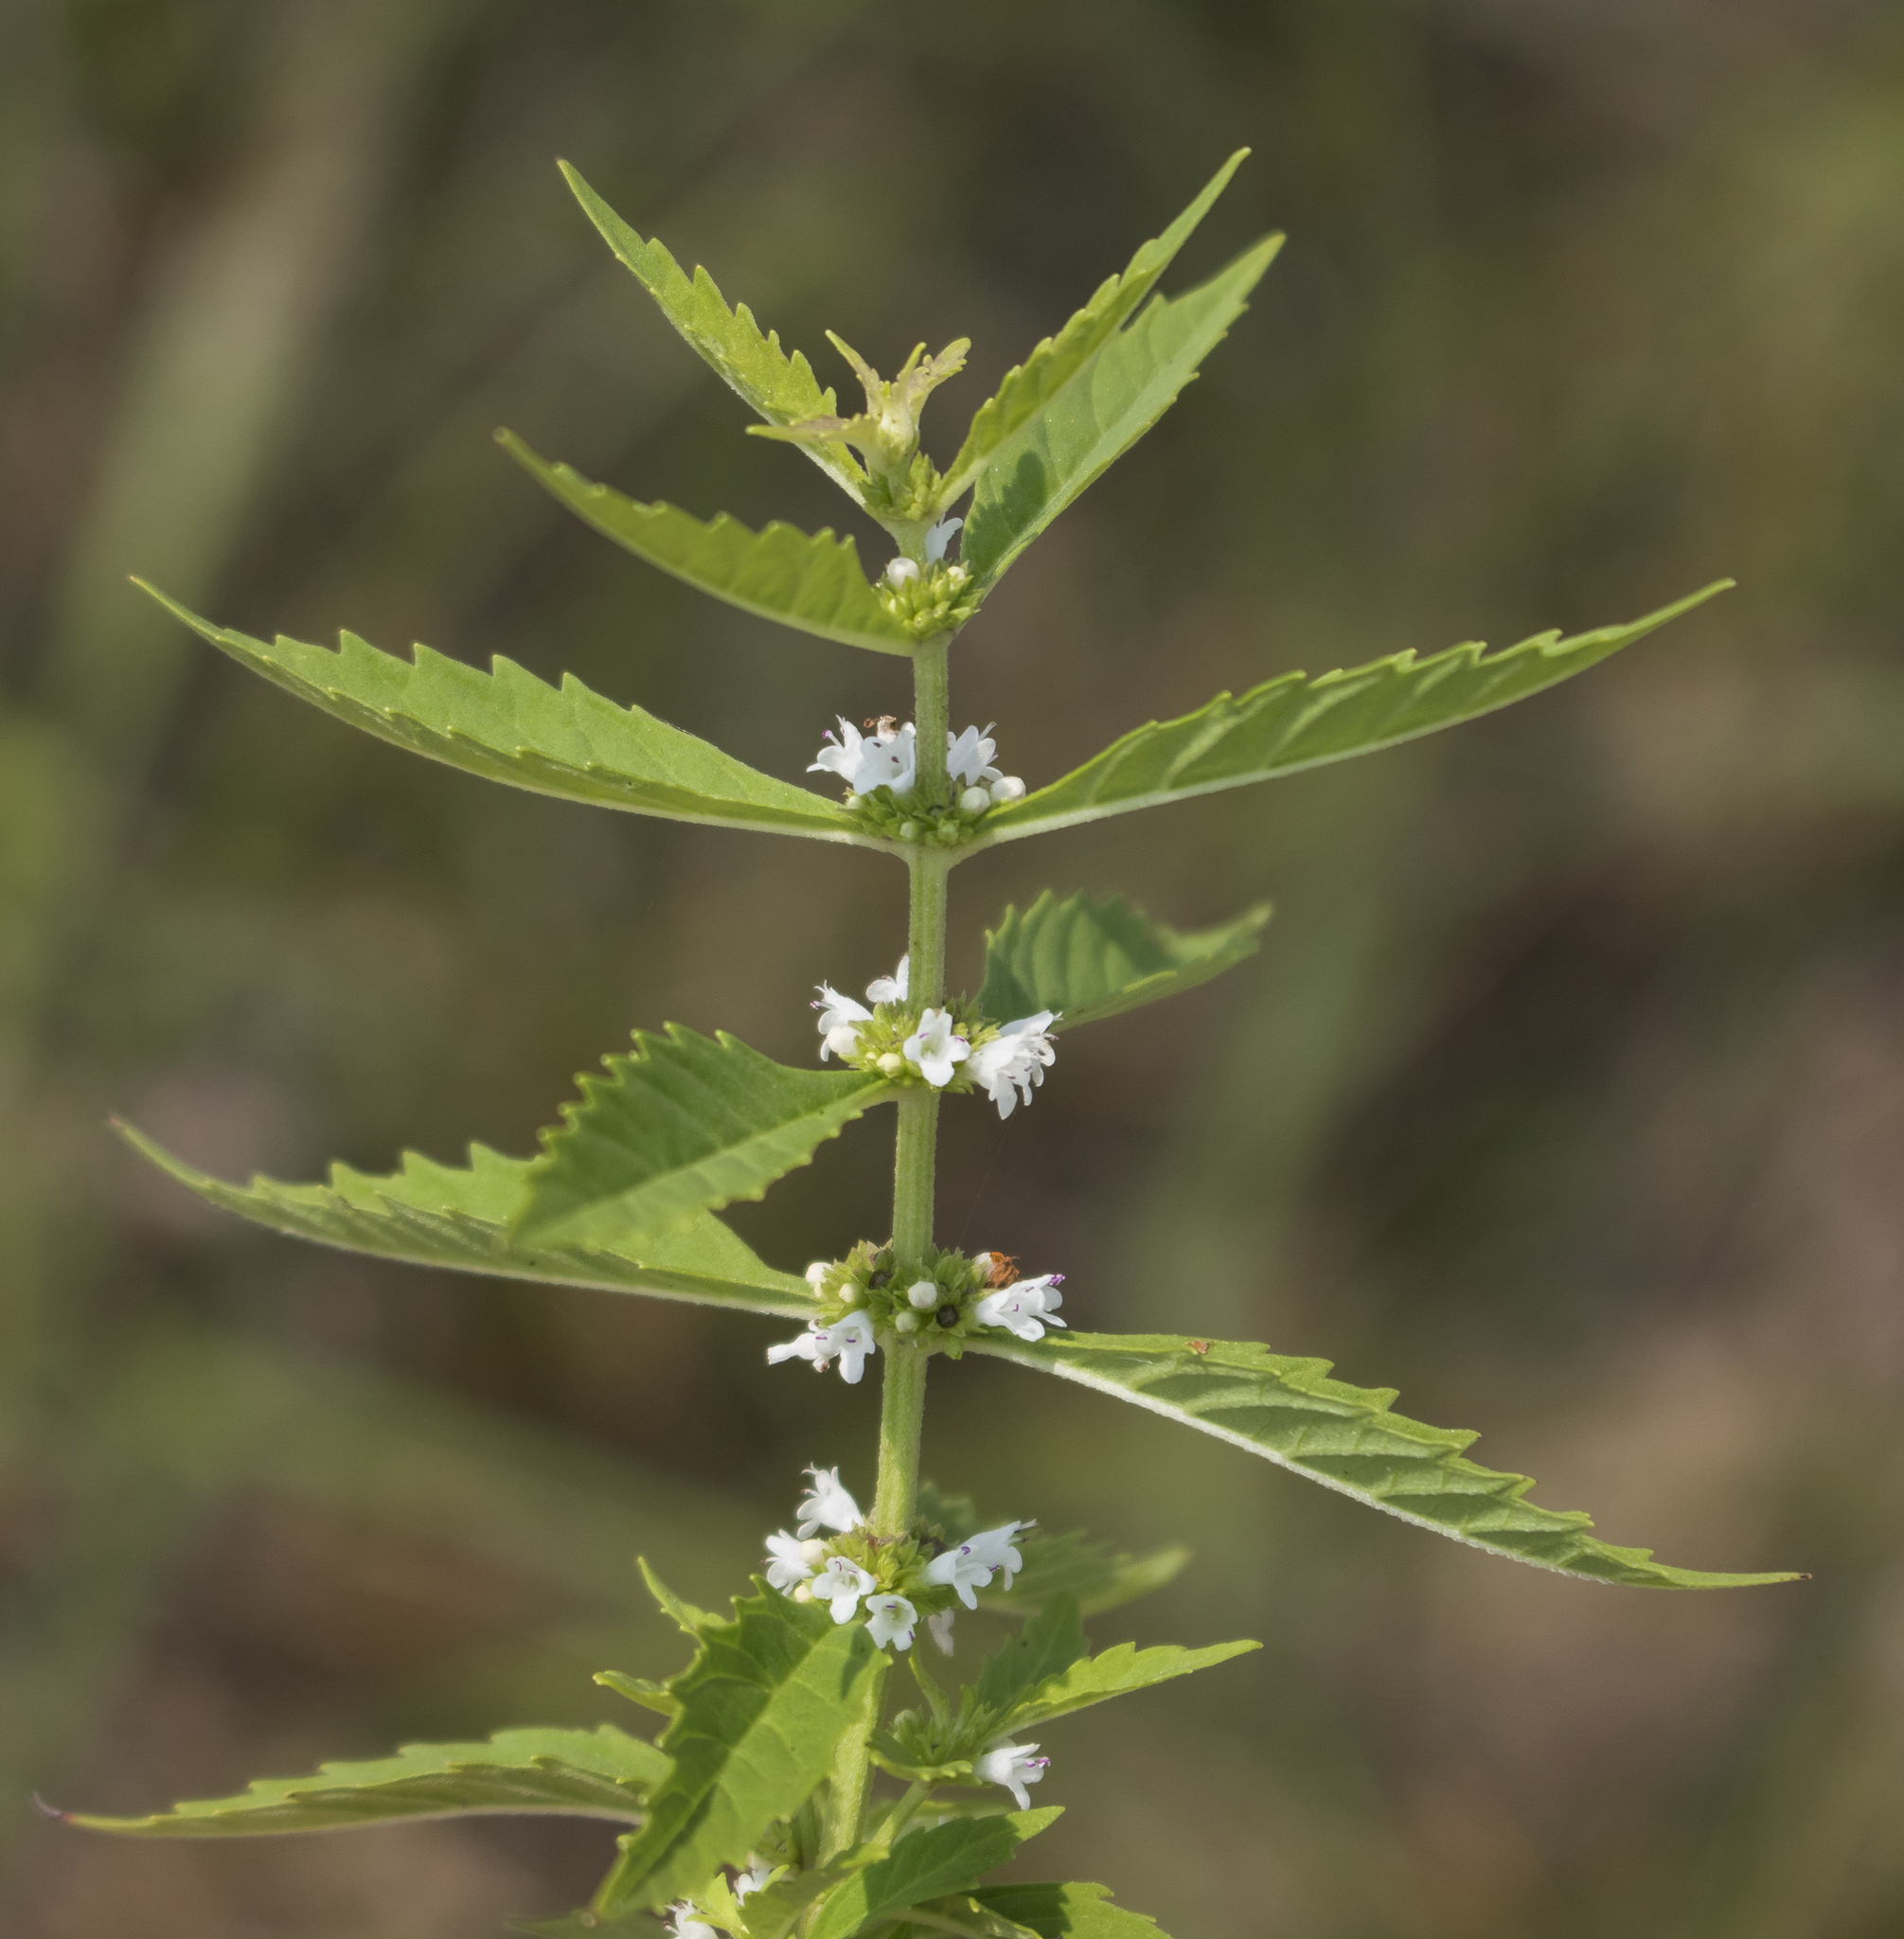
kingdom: Plantae
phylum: Tracheophyta
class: Magnoliopsida
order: Lamiales
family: Lamiaceae
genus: Lycopus
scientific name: Lycopus uniflorus
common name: Northern bugleweed
